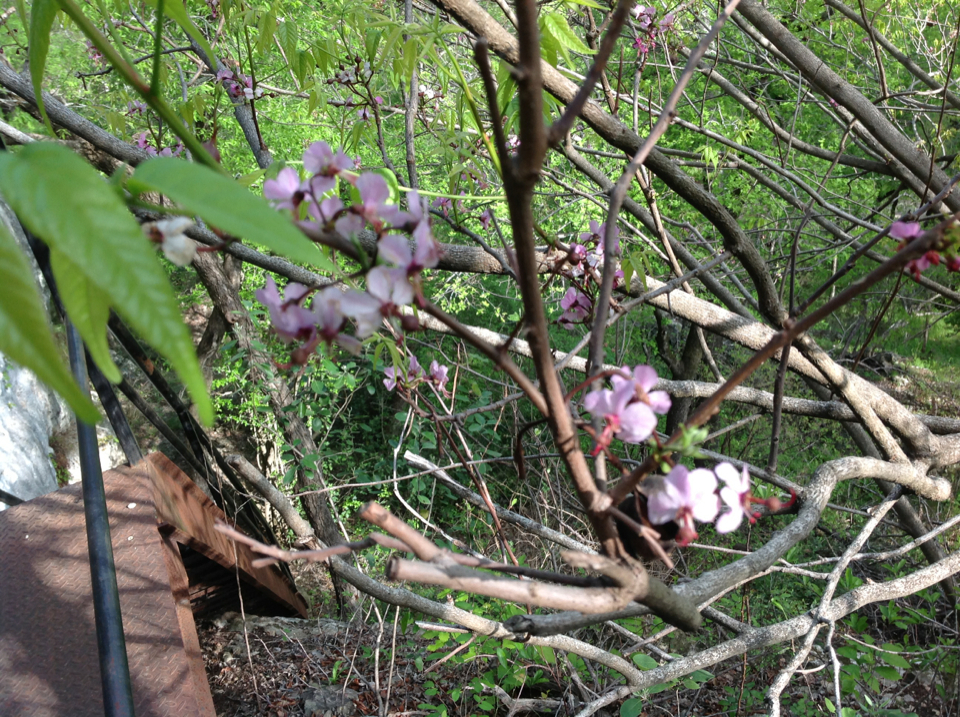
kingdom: Plantae
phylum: Tracheophyta
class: Magnoliopsida
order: Sapindales
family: Sapindaceae
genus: Ungnadia
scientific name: Ungnadia speciosa
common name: Texas-buckeye
